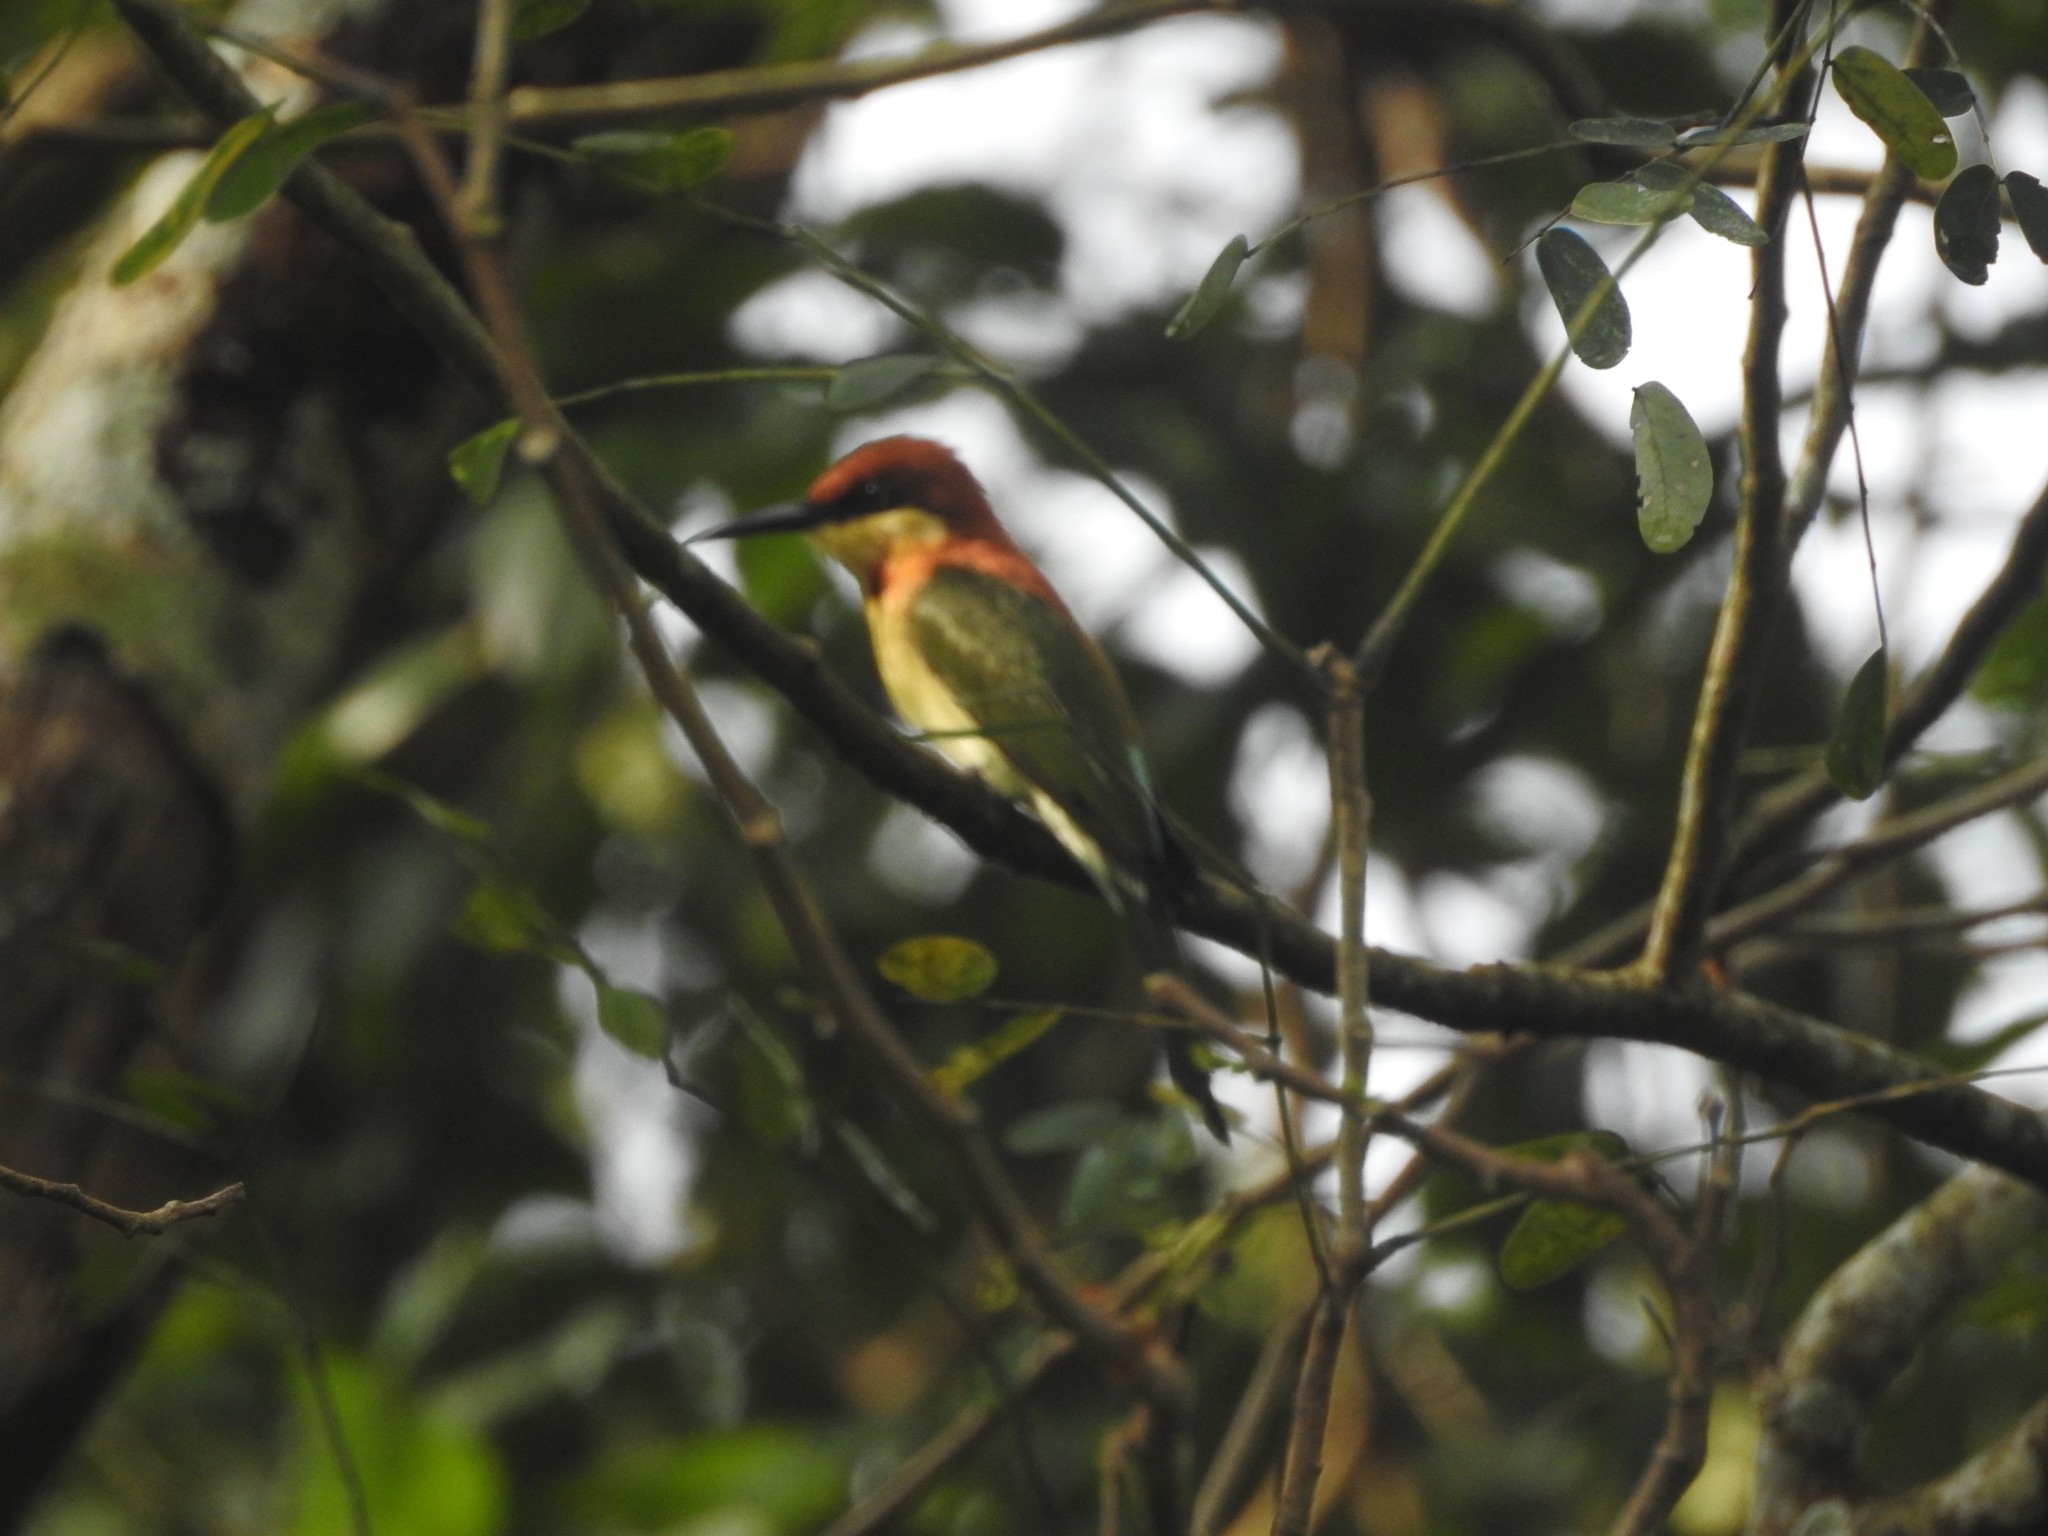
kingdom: Animalia
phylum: Chordata
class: Aves
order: Coraciiformes
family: Meropidae
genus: Merops
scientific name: Merops leschenaulti
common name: Chestnut-headed bee-eater
